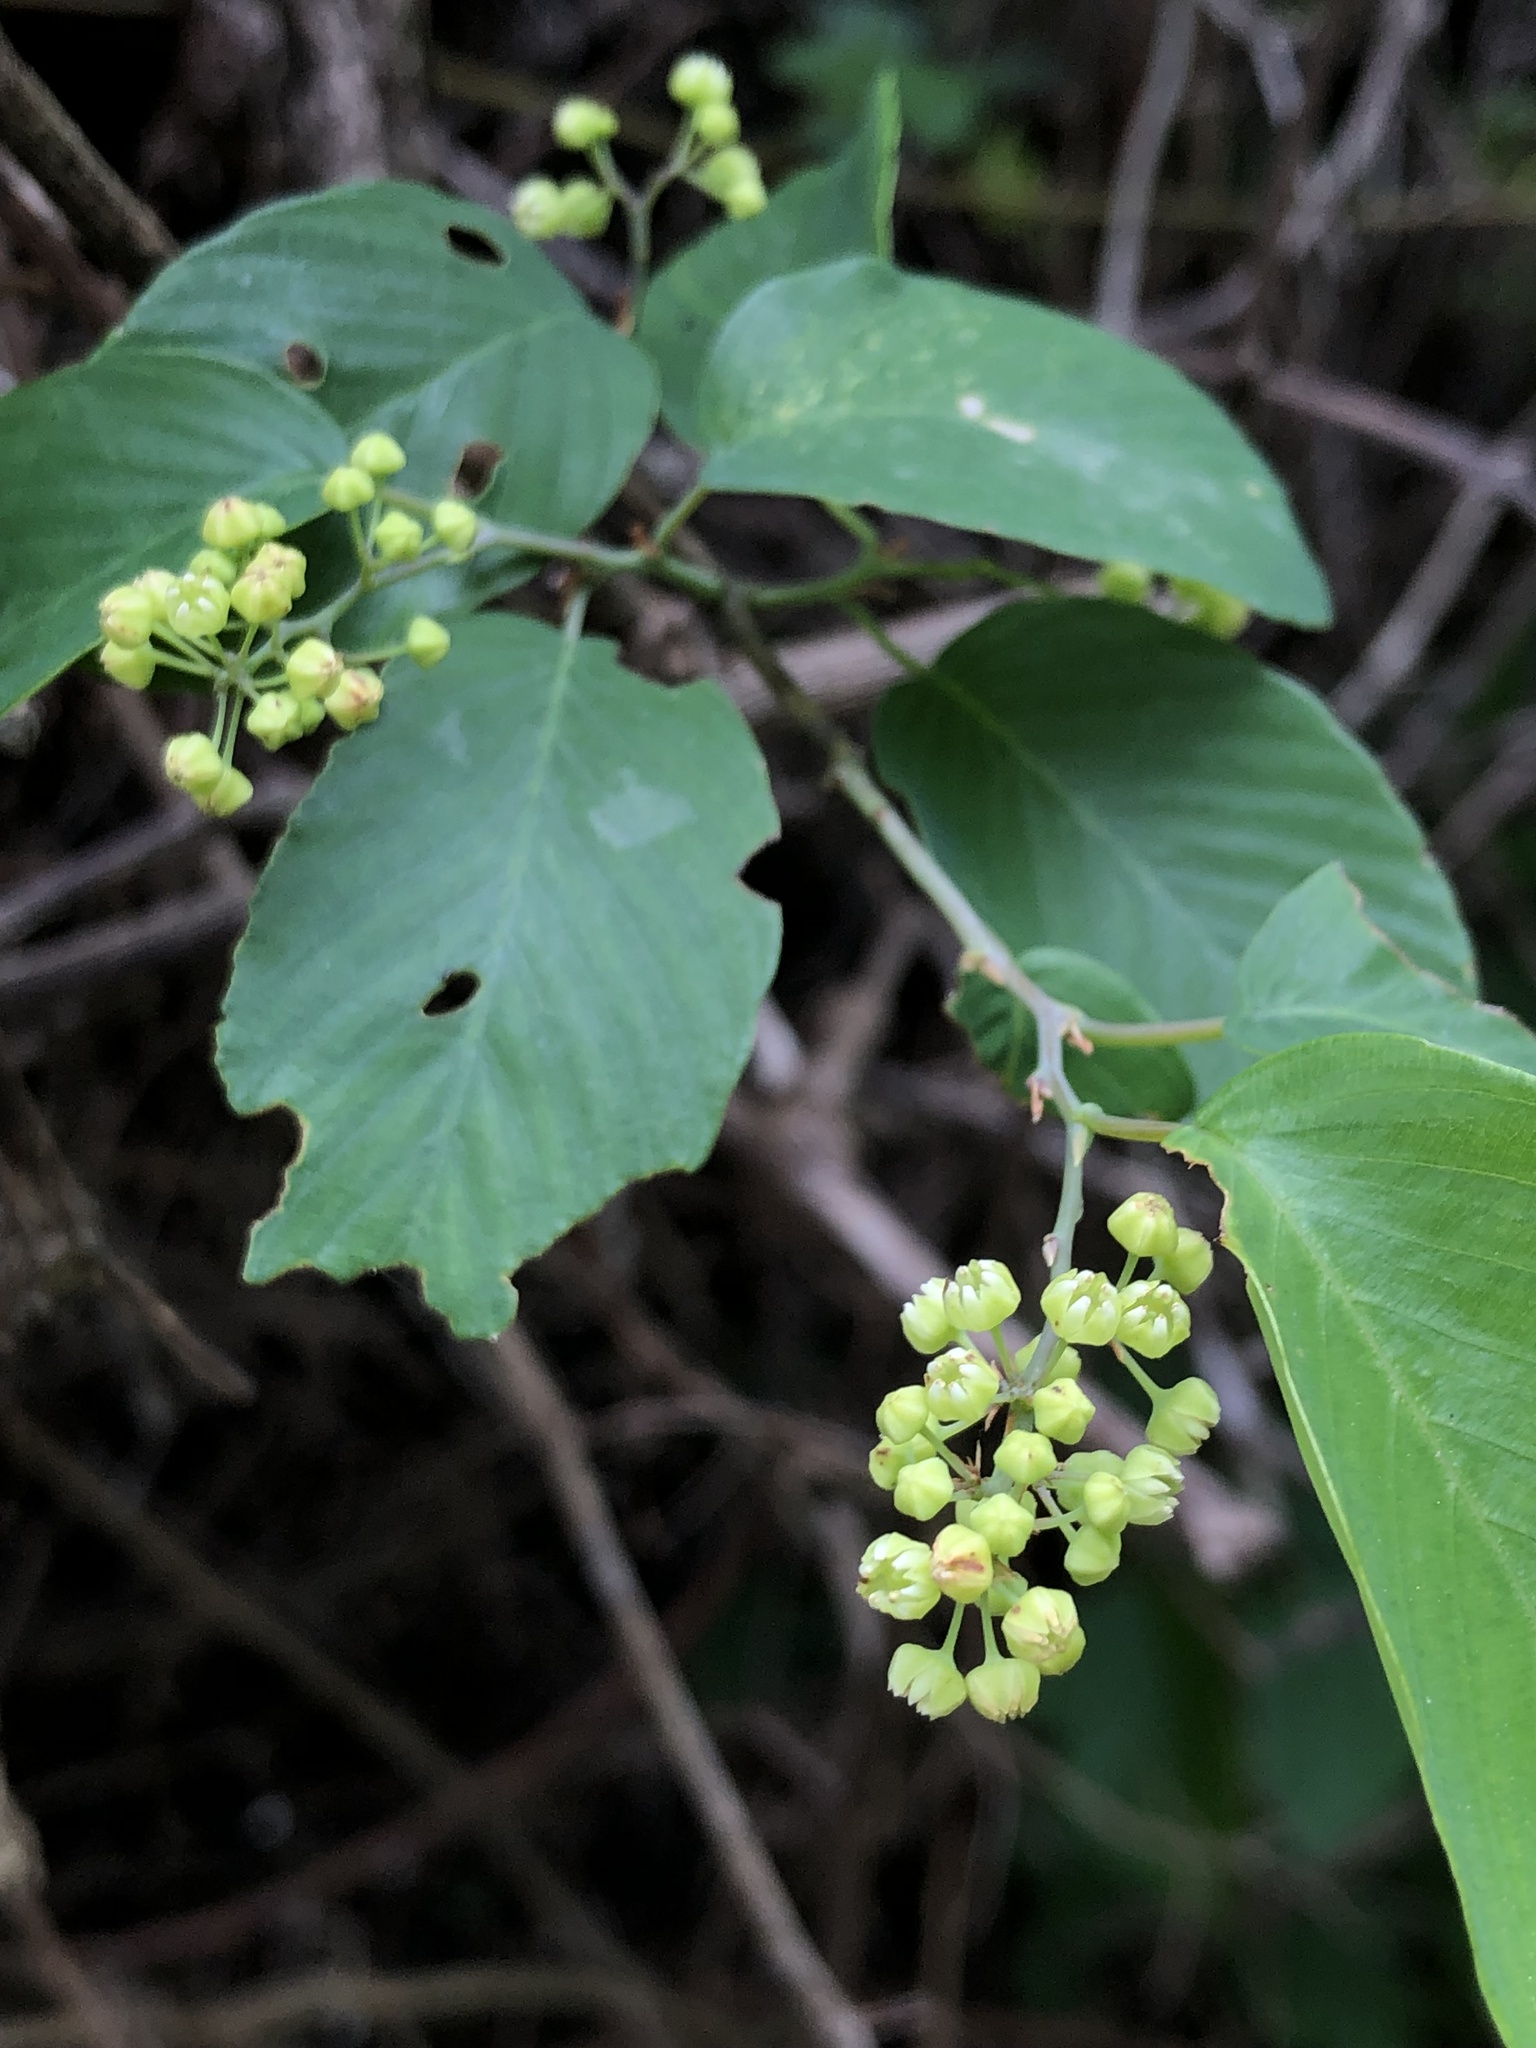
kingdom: Plantae
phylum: Tracheophyta
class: Magnoliopsida
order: Rosales
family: Rhamnaceae
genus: Berchemia
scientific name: Berchemia scandens
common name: Supplejack
